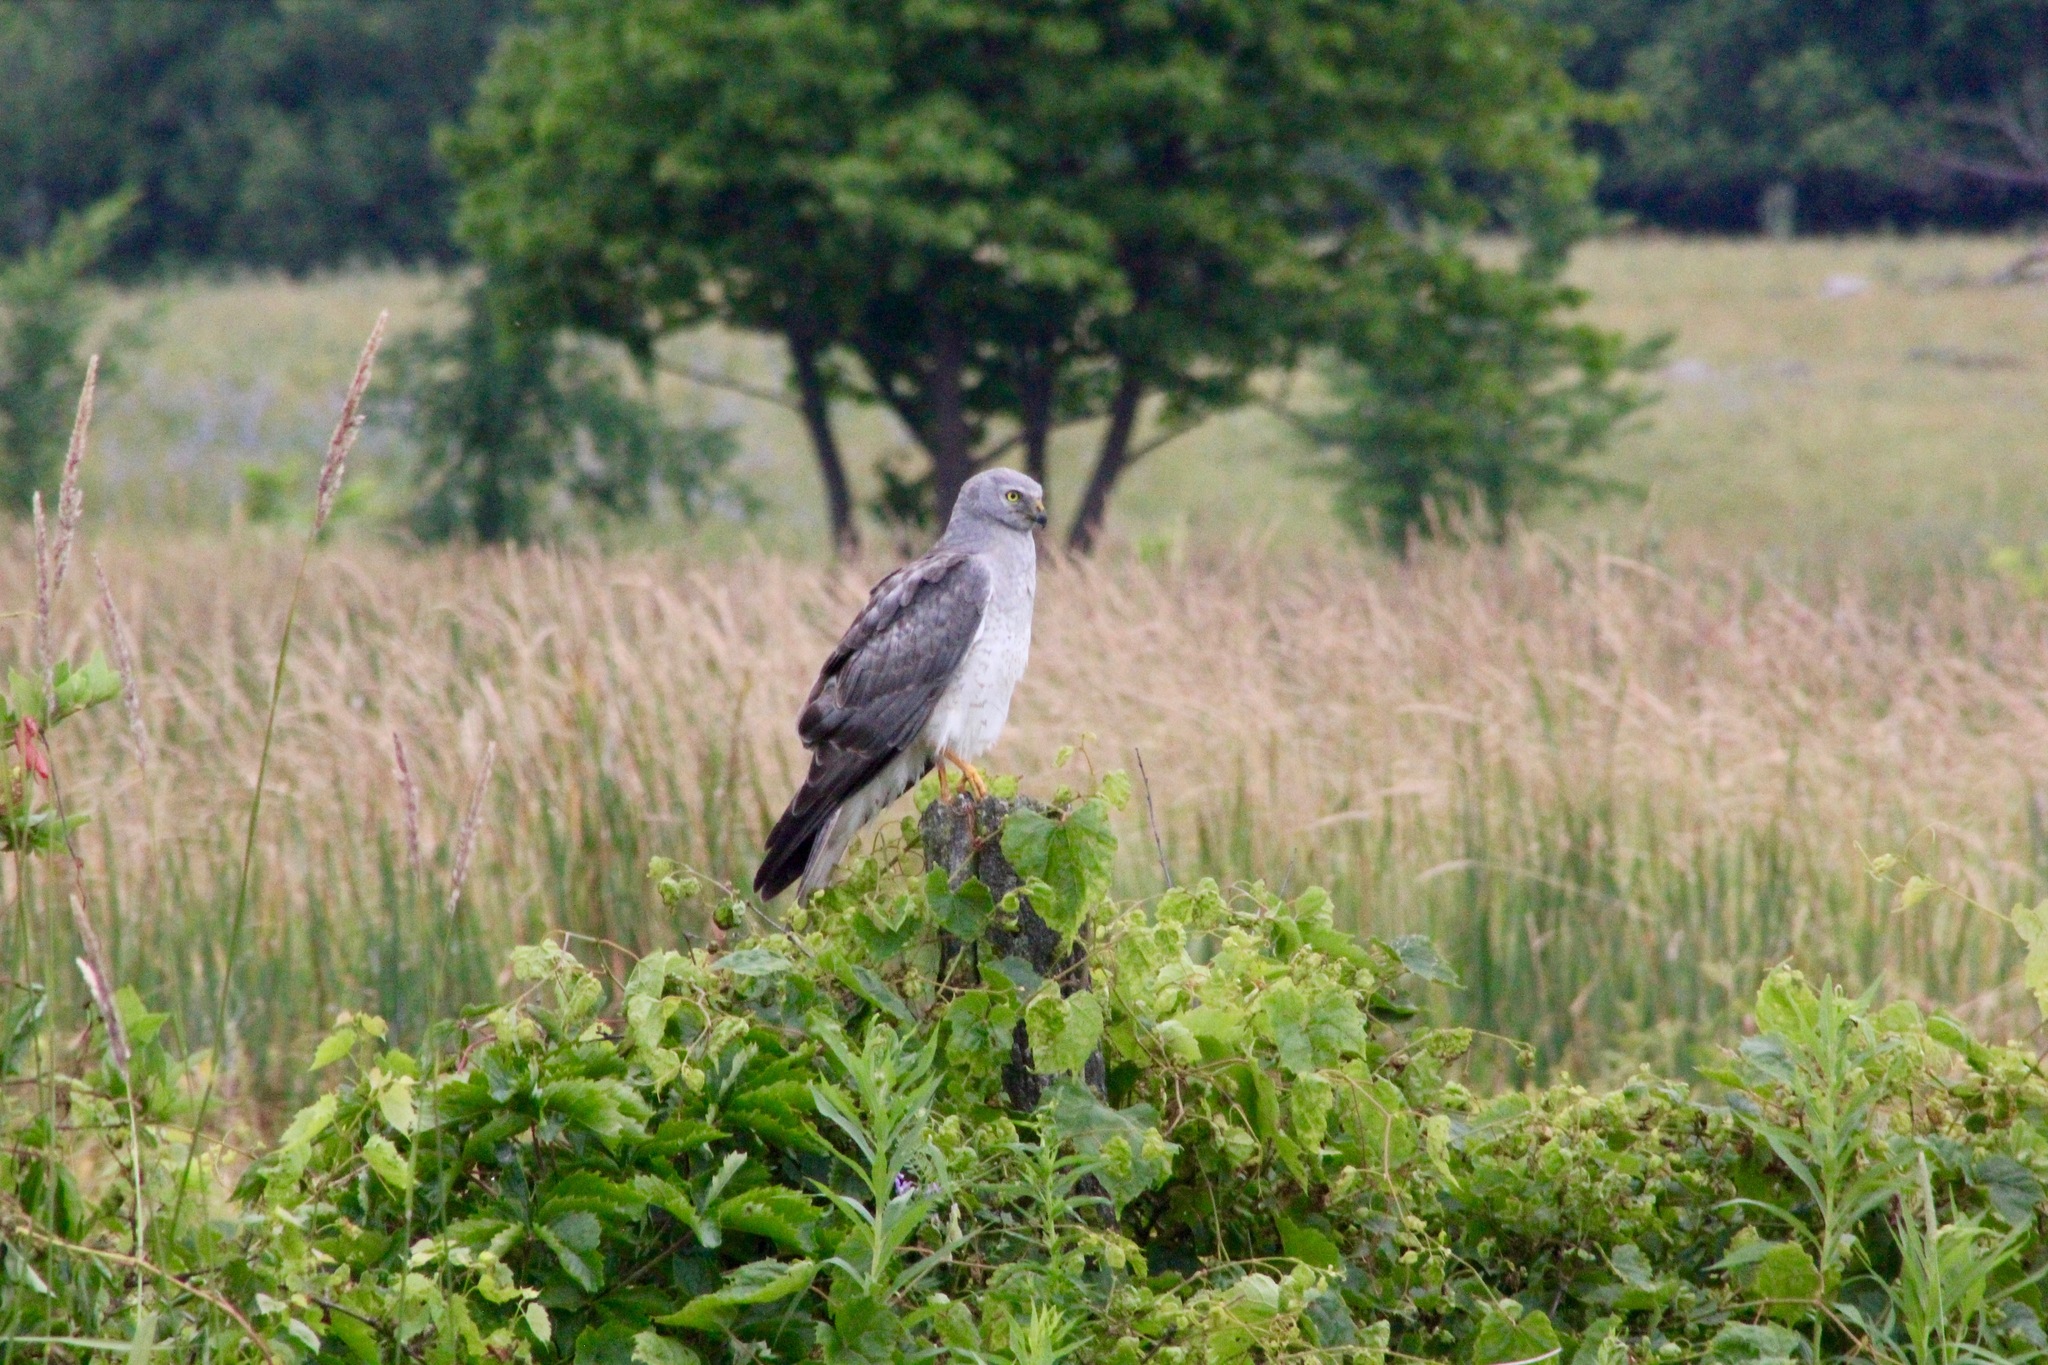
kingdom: Animalia
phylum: Chordata
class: Aves
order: Accipitriformes
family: Accipitridae
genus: Circus
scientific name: Circus cyaneus
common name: Hen harrier
